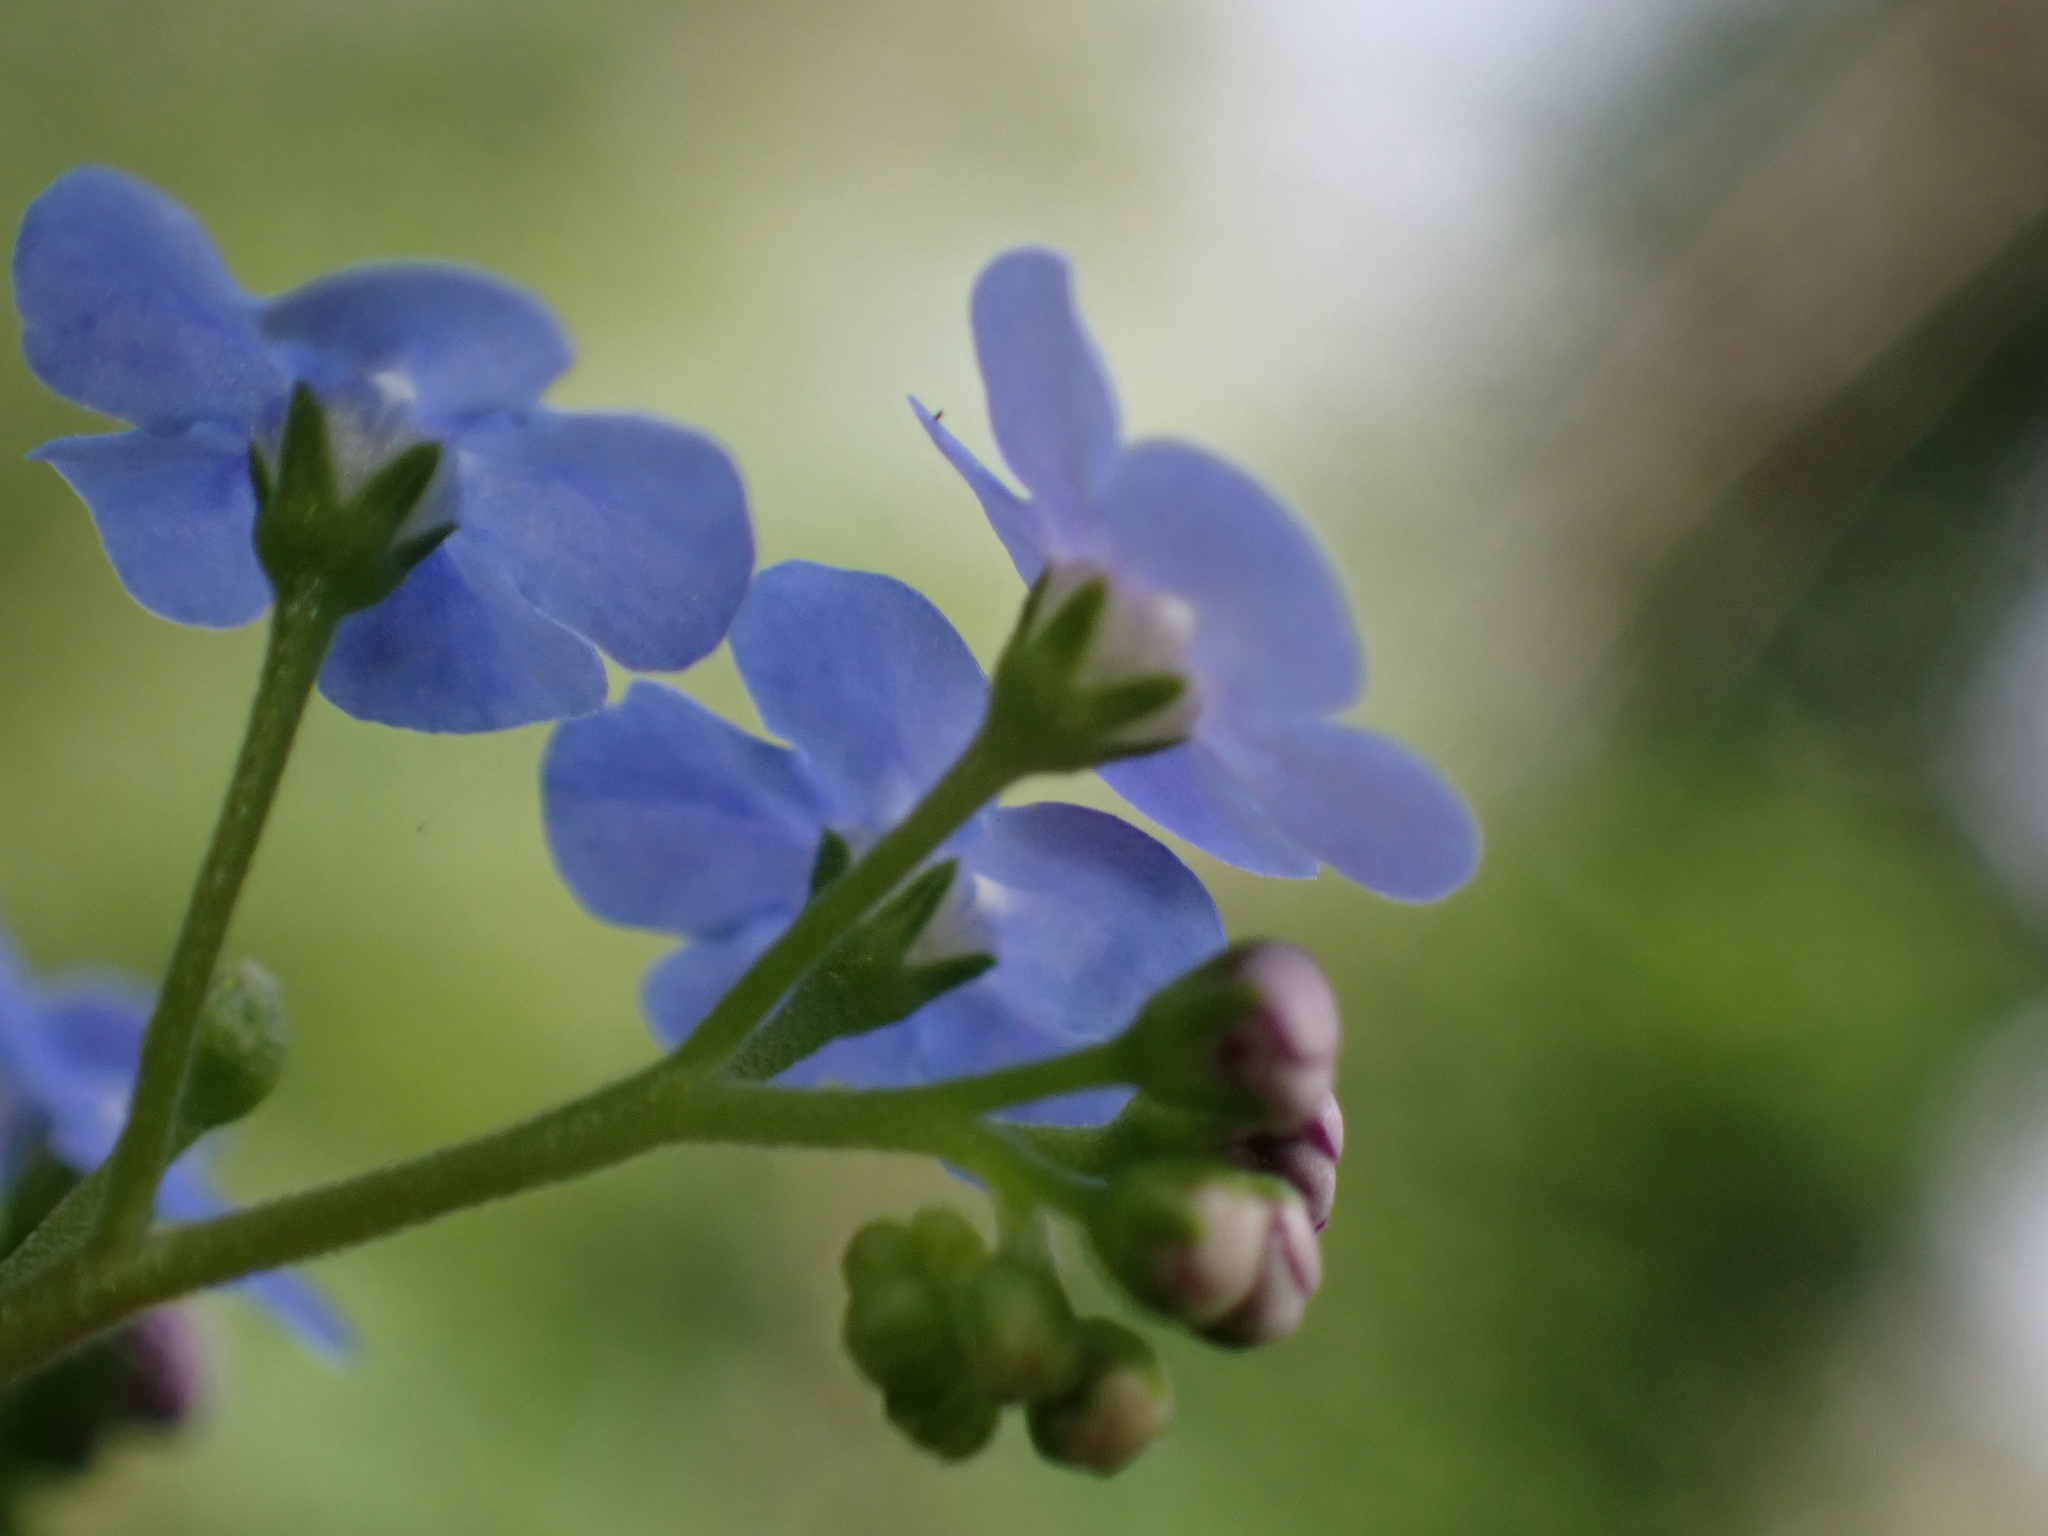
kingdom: Plantae
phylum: Tracheophyta
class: Magnoliopsida
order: Boraginales
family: Boraginaceae
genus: Omphalodes
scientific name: Omphalodes verna
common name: Blue-eyed-mary
